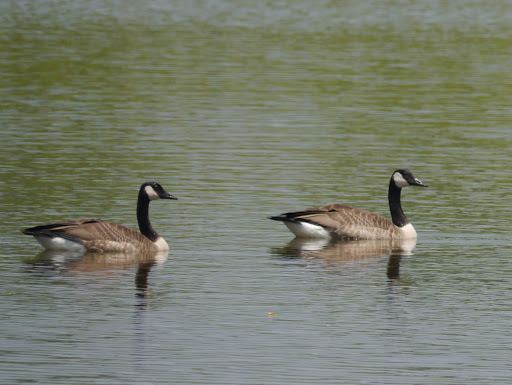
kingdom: Animalia
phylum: Chordata
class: Aves
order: Anseriformes
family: Anatidae
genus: Branta
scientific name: Branta canadensis
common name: Canada goose
